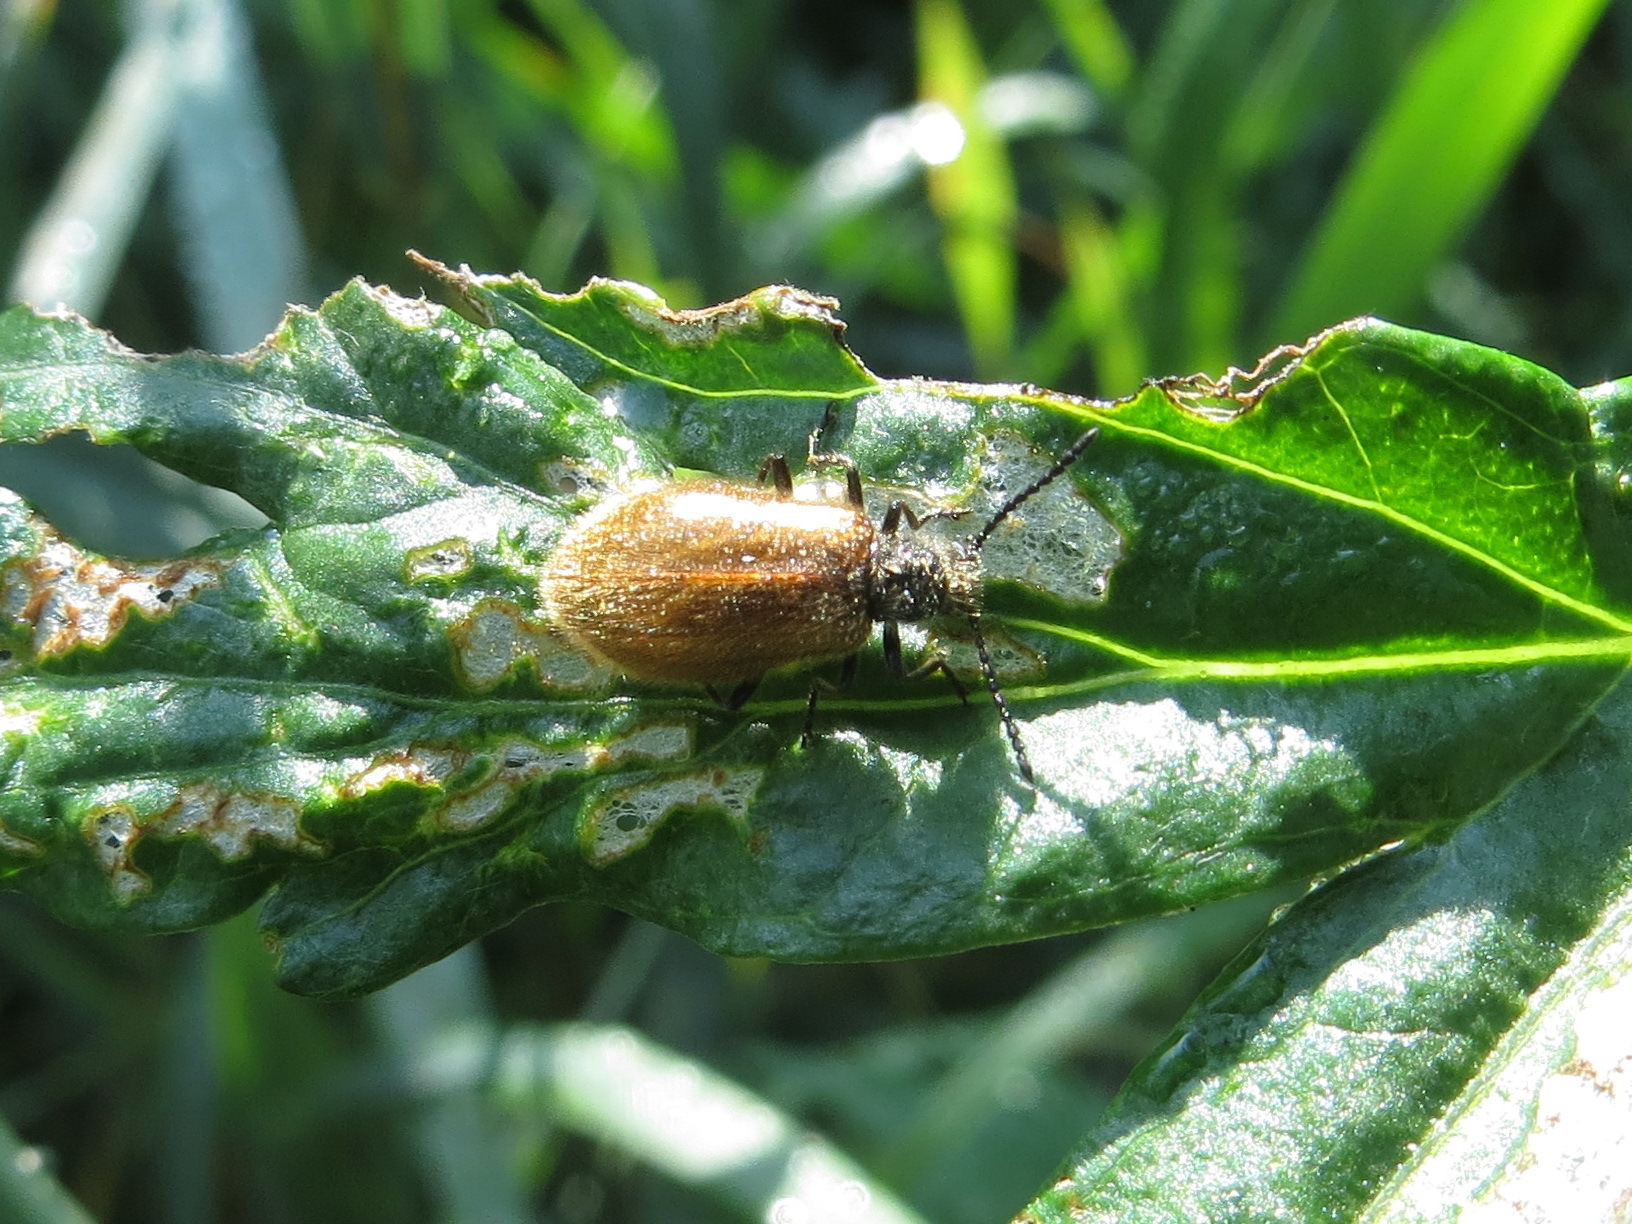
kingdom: Animalia
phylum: Arthropoda
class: Insecta
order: Coleoptera
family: Tenebrionidae
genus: Lagria
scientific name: Lagria hirta
